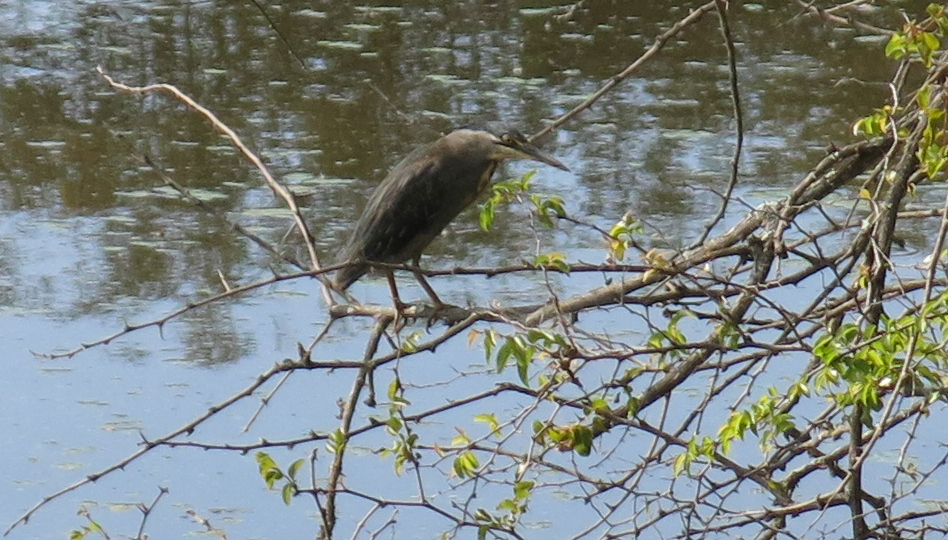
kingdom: Animalia
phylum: Chordata
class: Aves
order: Pelecaniformes
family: Ardeidae
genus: Butorides
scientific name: Butorides striata
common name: Striated heron
